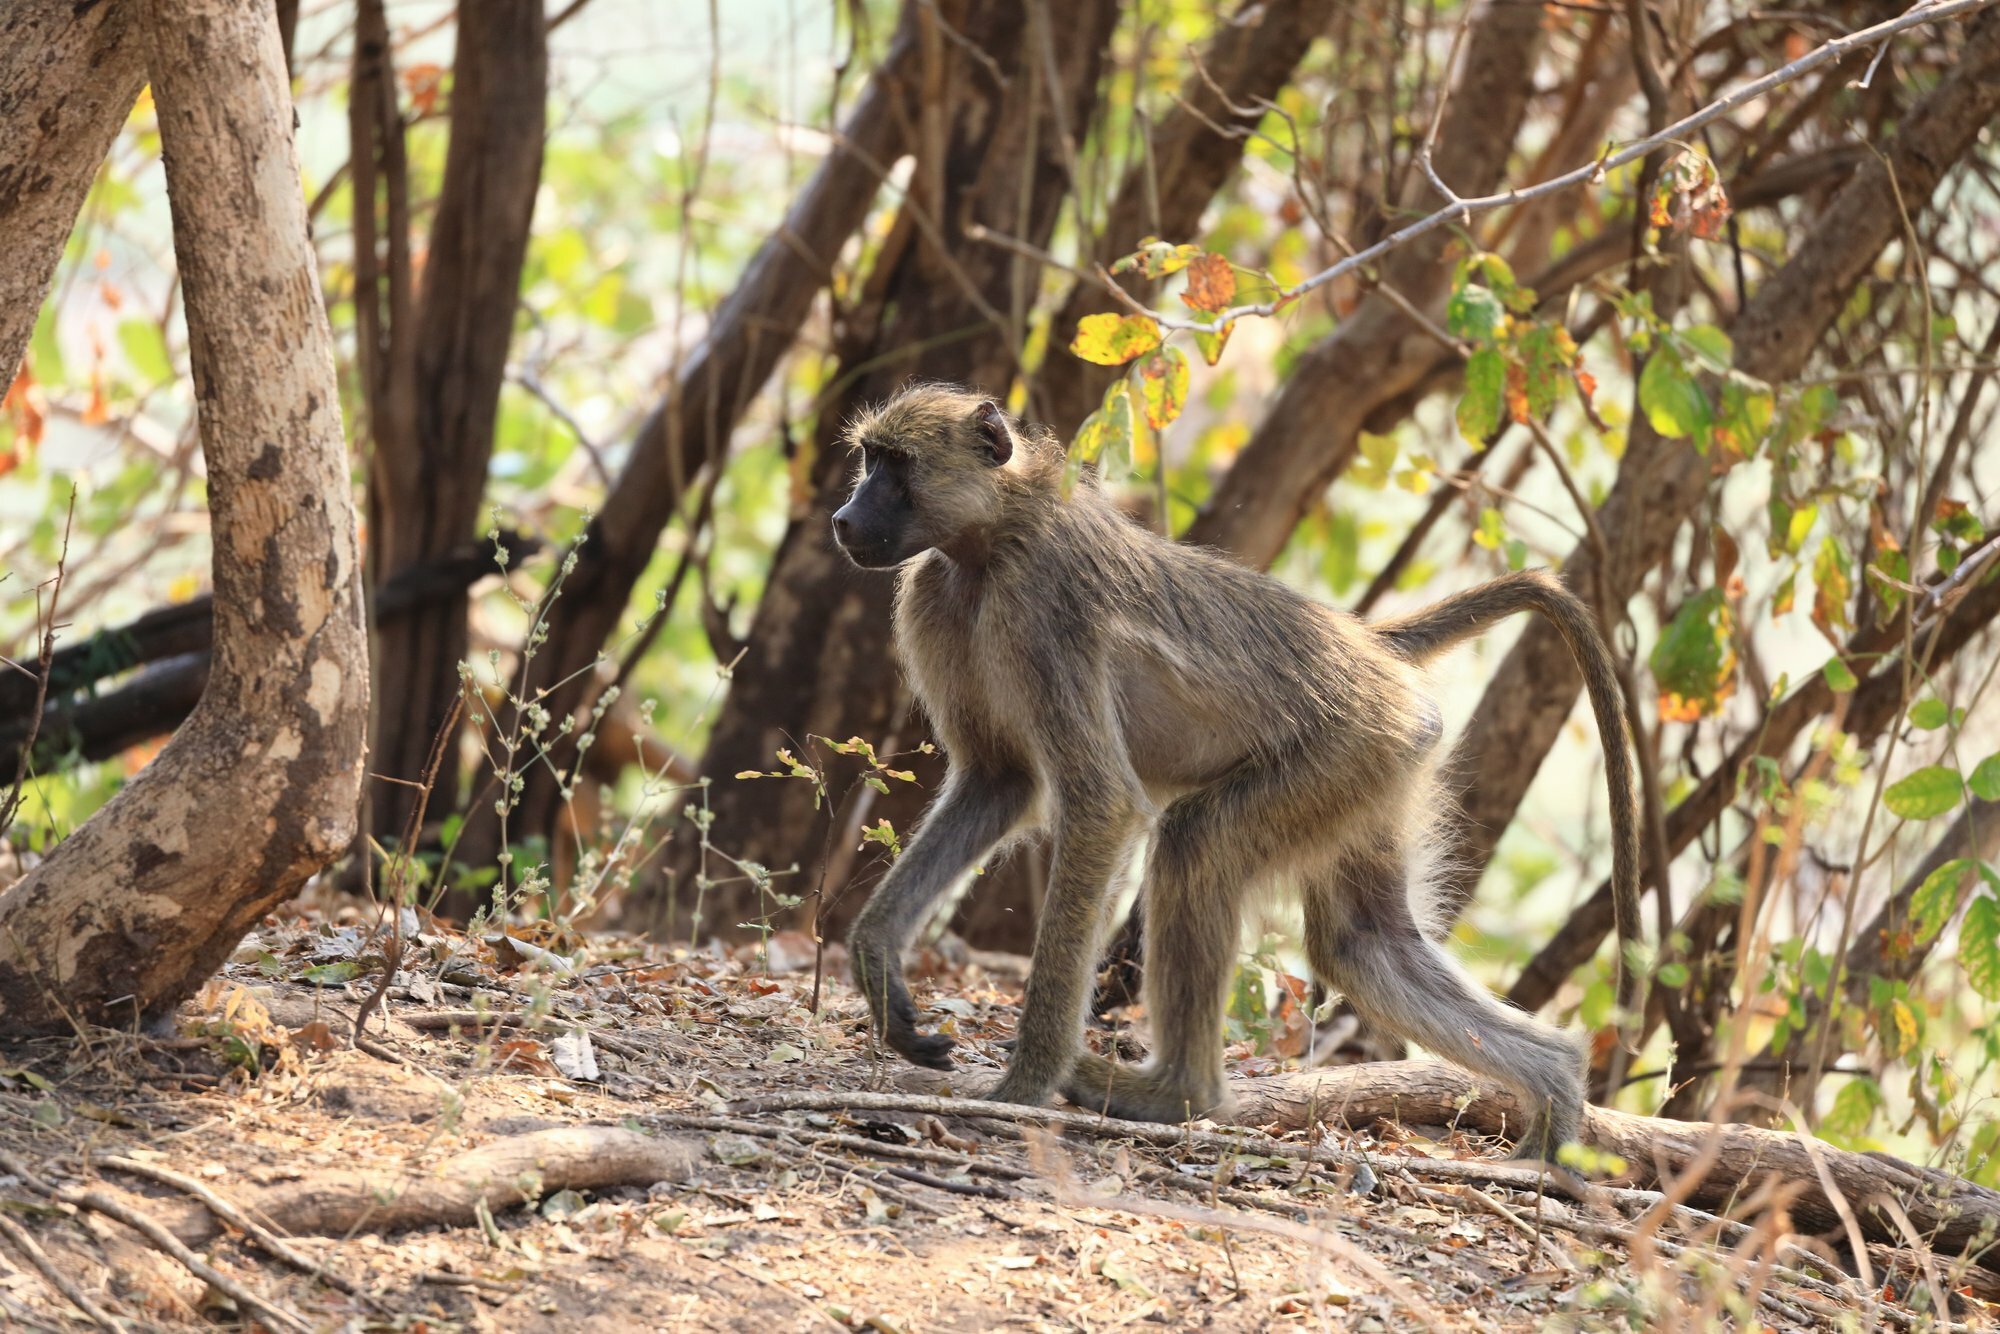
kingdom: Animalia
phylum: Chordata
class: Mammalia
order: Primates
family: Cercopithecidae
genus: Papio
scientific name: Papio cynocephalus
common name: Yellow baboon
